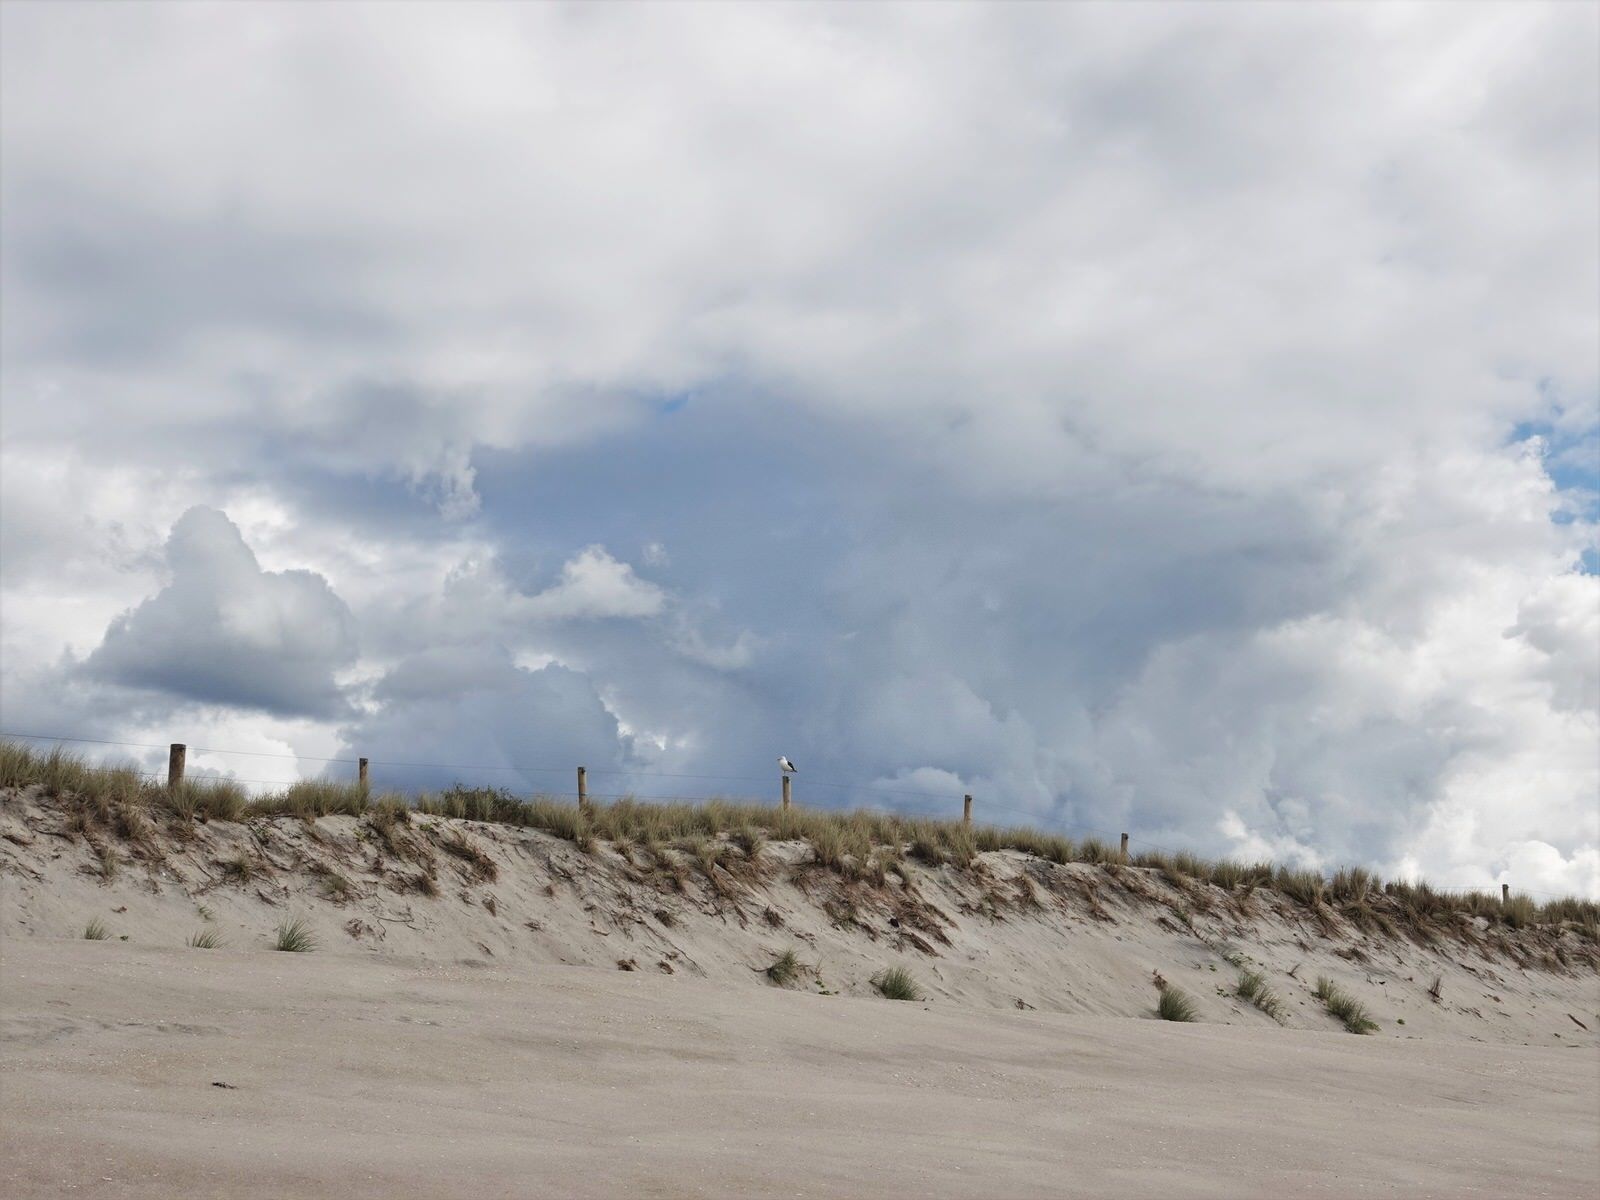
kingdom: Animalia
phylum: Chordata
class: Aves
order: Charadriiformes
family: Laridae
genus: Larus
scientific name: Larus dominicanus
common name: Kelp gull
